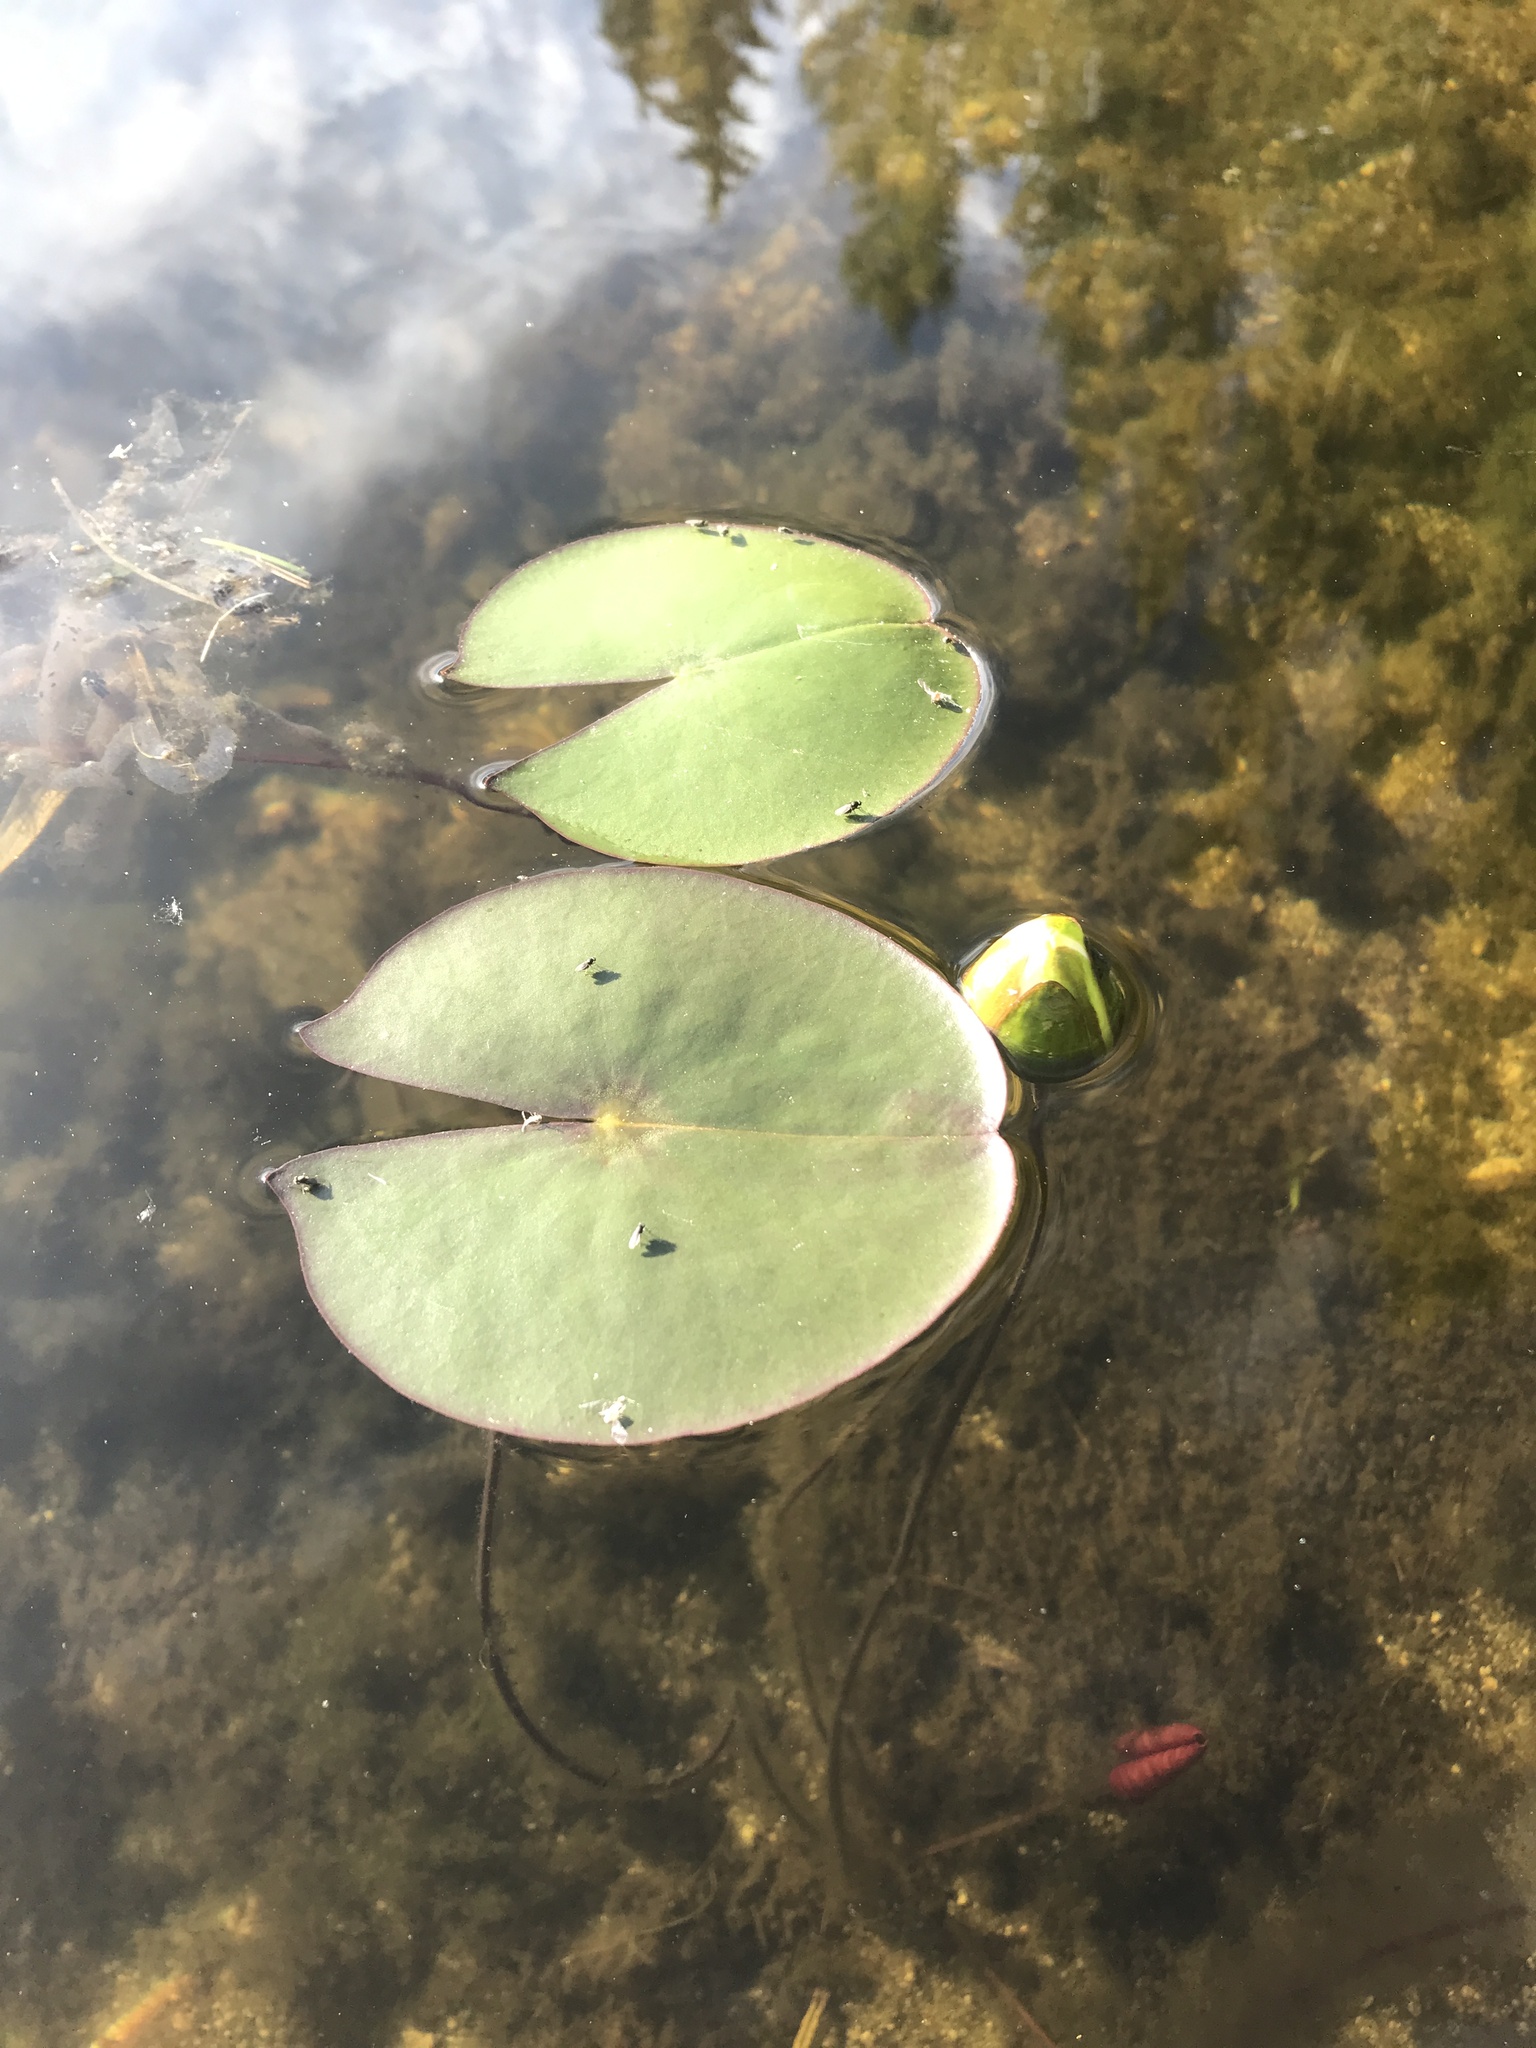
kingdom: Plantae
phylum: Tracheophyta
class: Magnoliopsida
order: Nymphaeales
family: Nymphaeaceae
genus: Nymphaea
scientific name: Nymphaea odorata
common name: Fragrant water-lily
